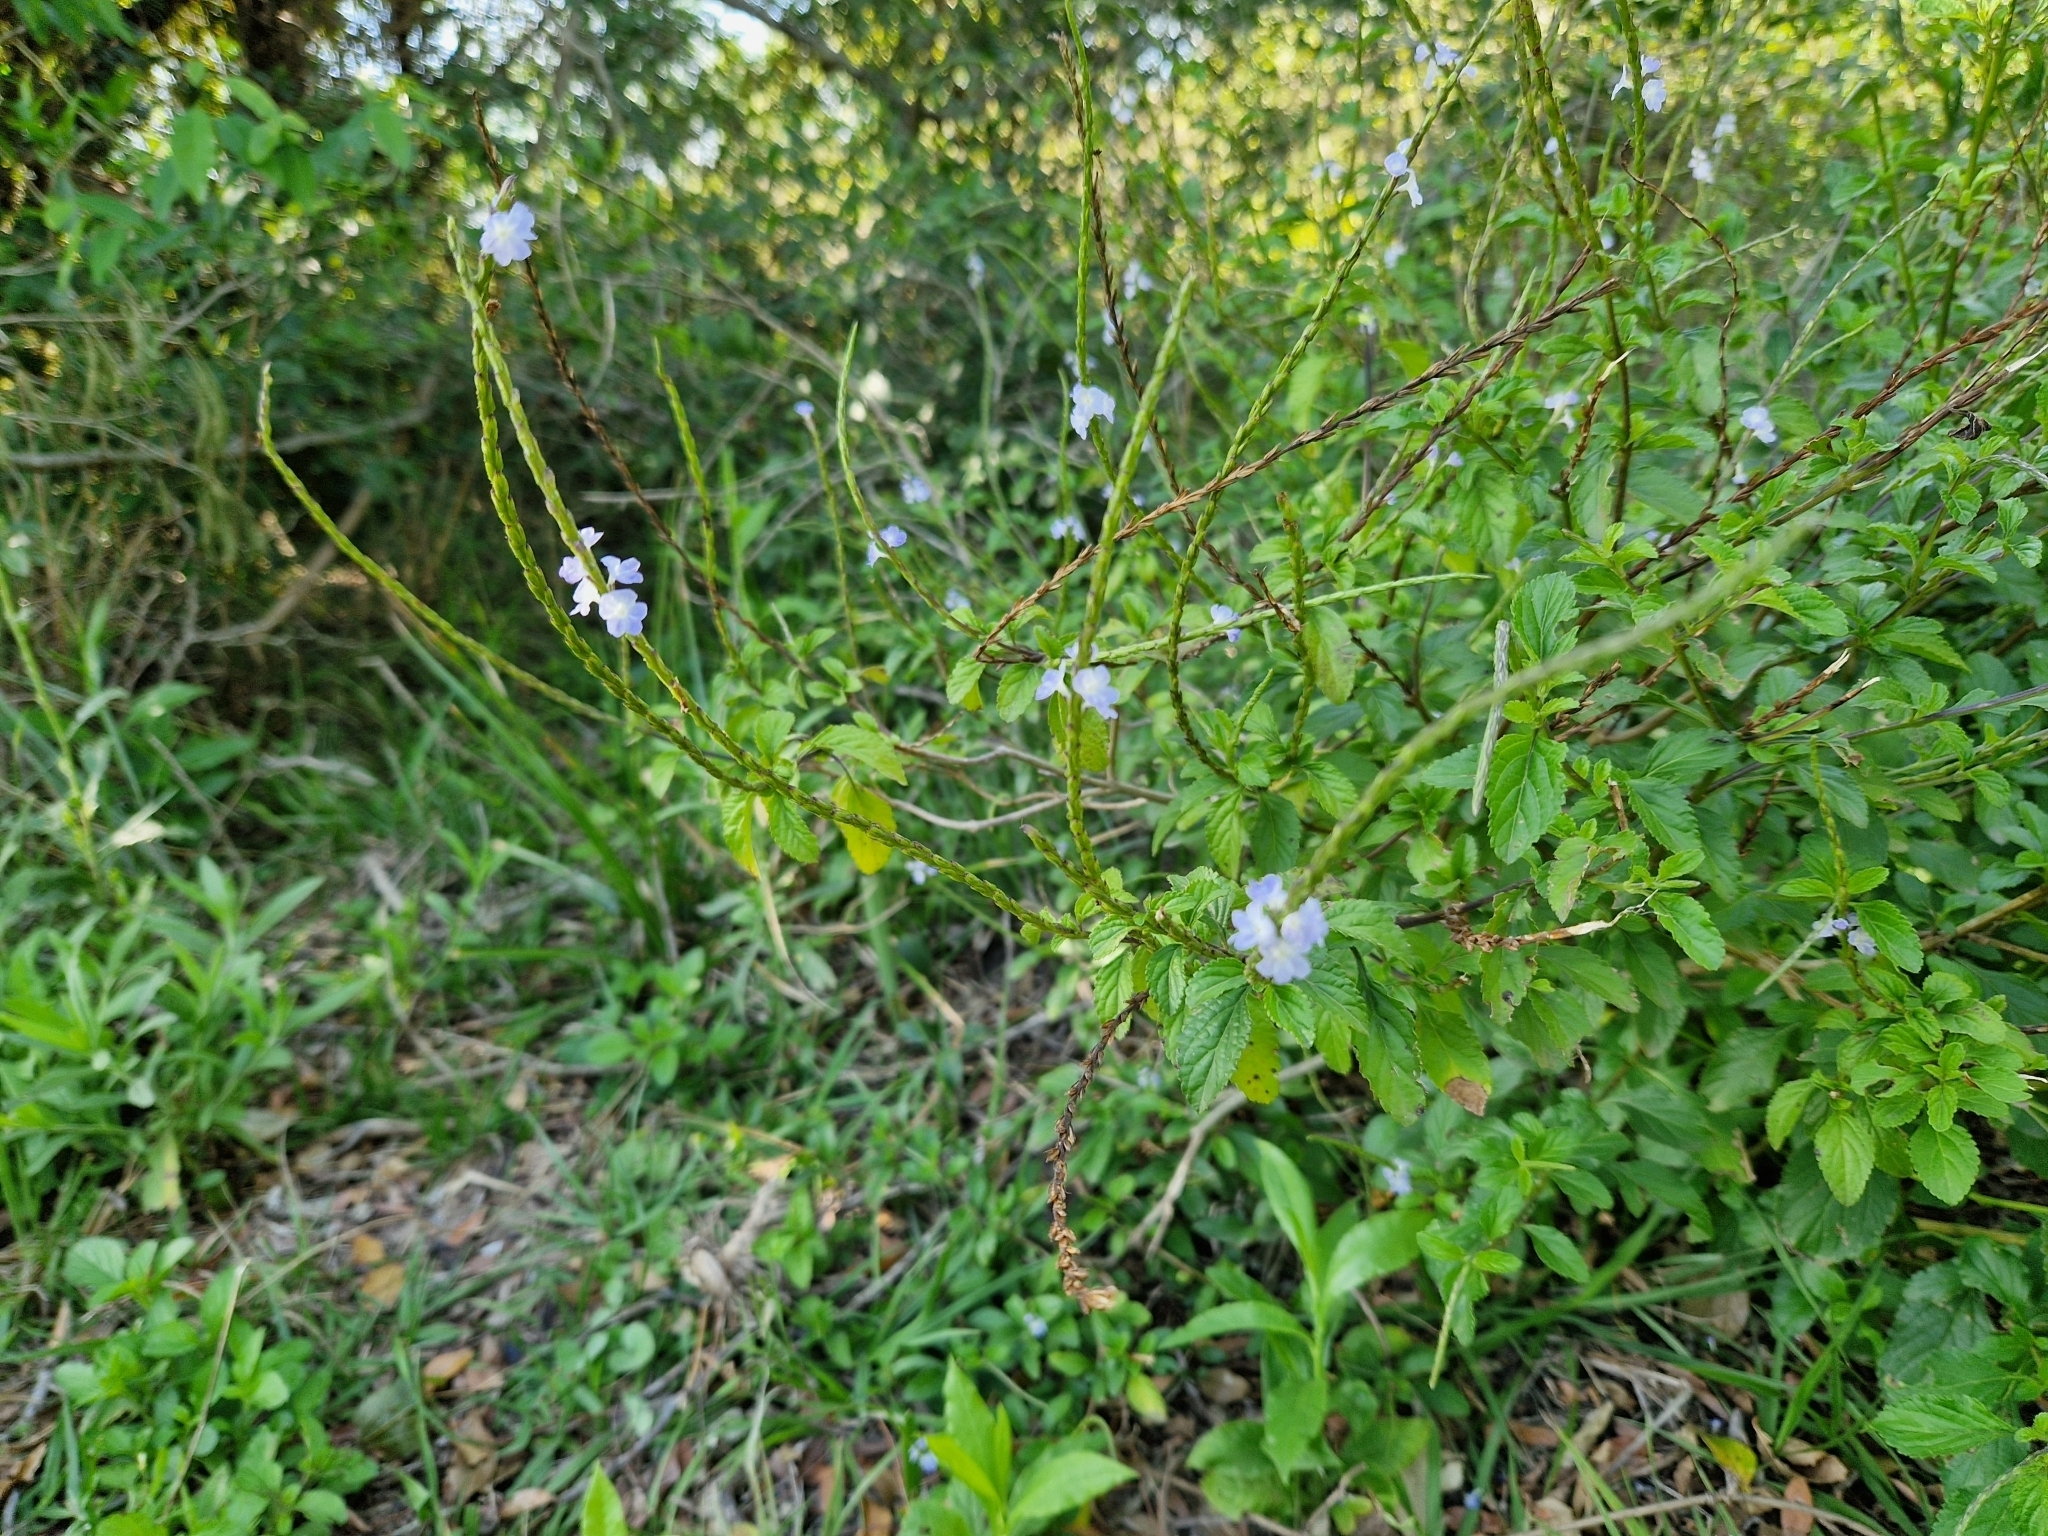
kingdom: Plantae
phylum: Tracheophyta
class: Magnoliopsida
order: Lamiales
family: Verbenaceae
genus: Stachytarpheta
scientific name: Stachytarpheta cayennensis
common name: Cayenne porterweed
